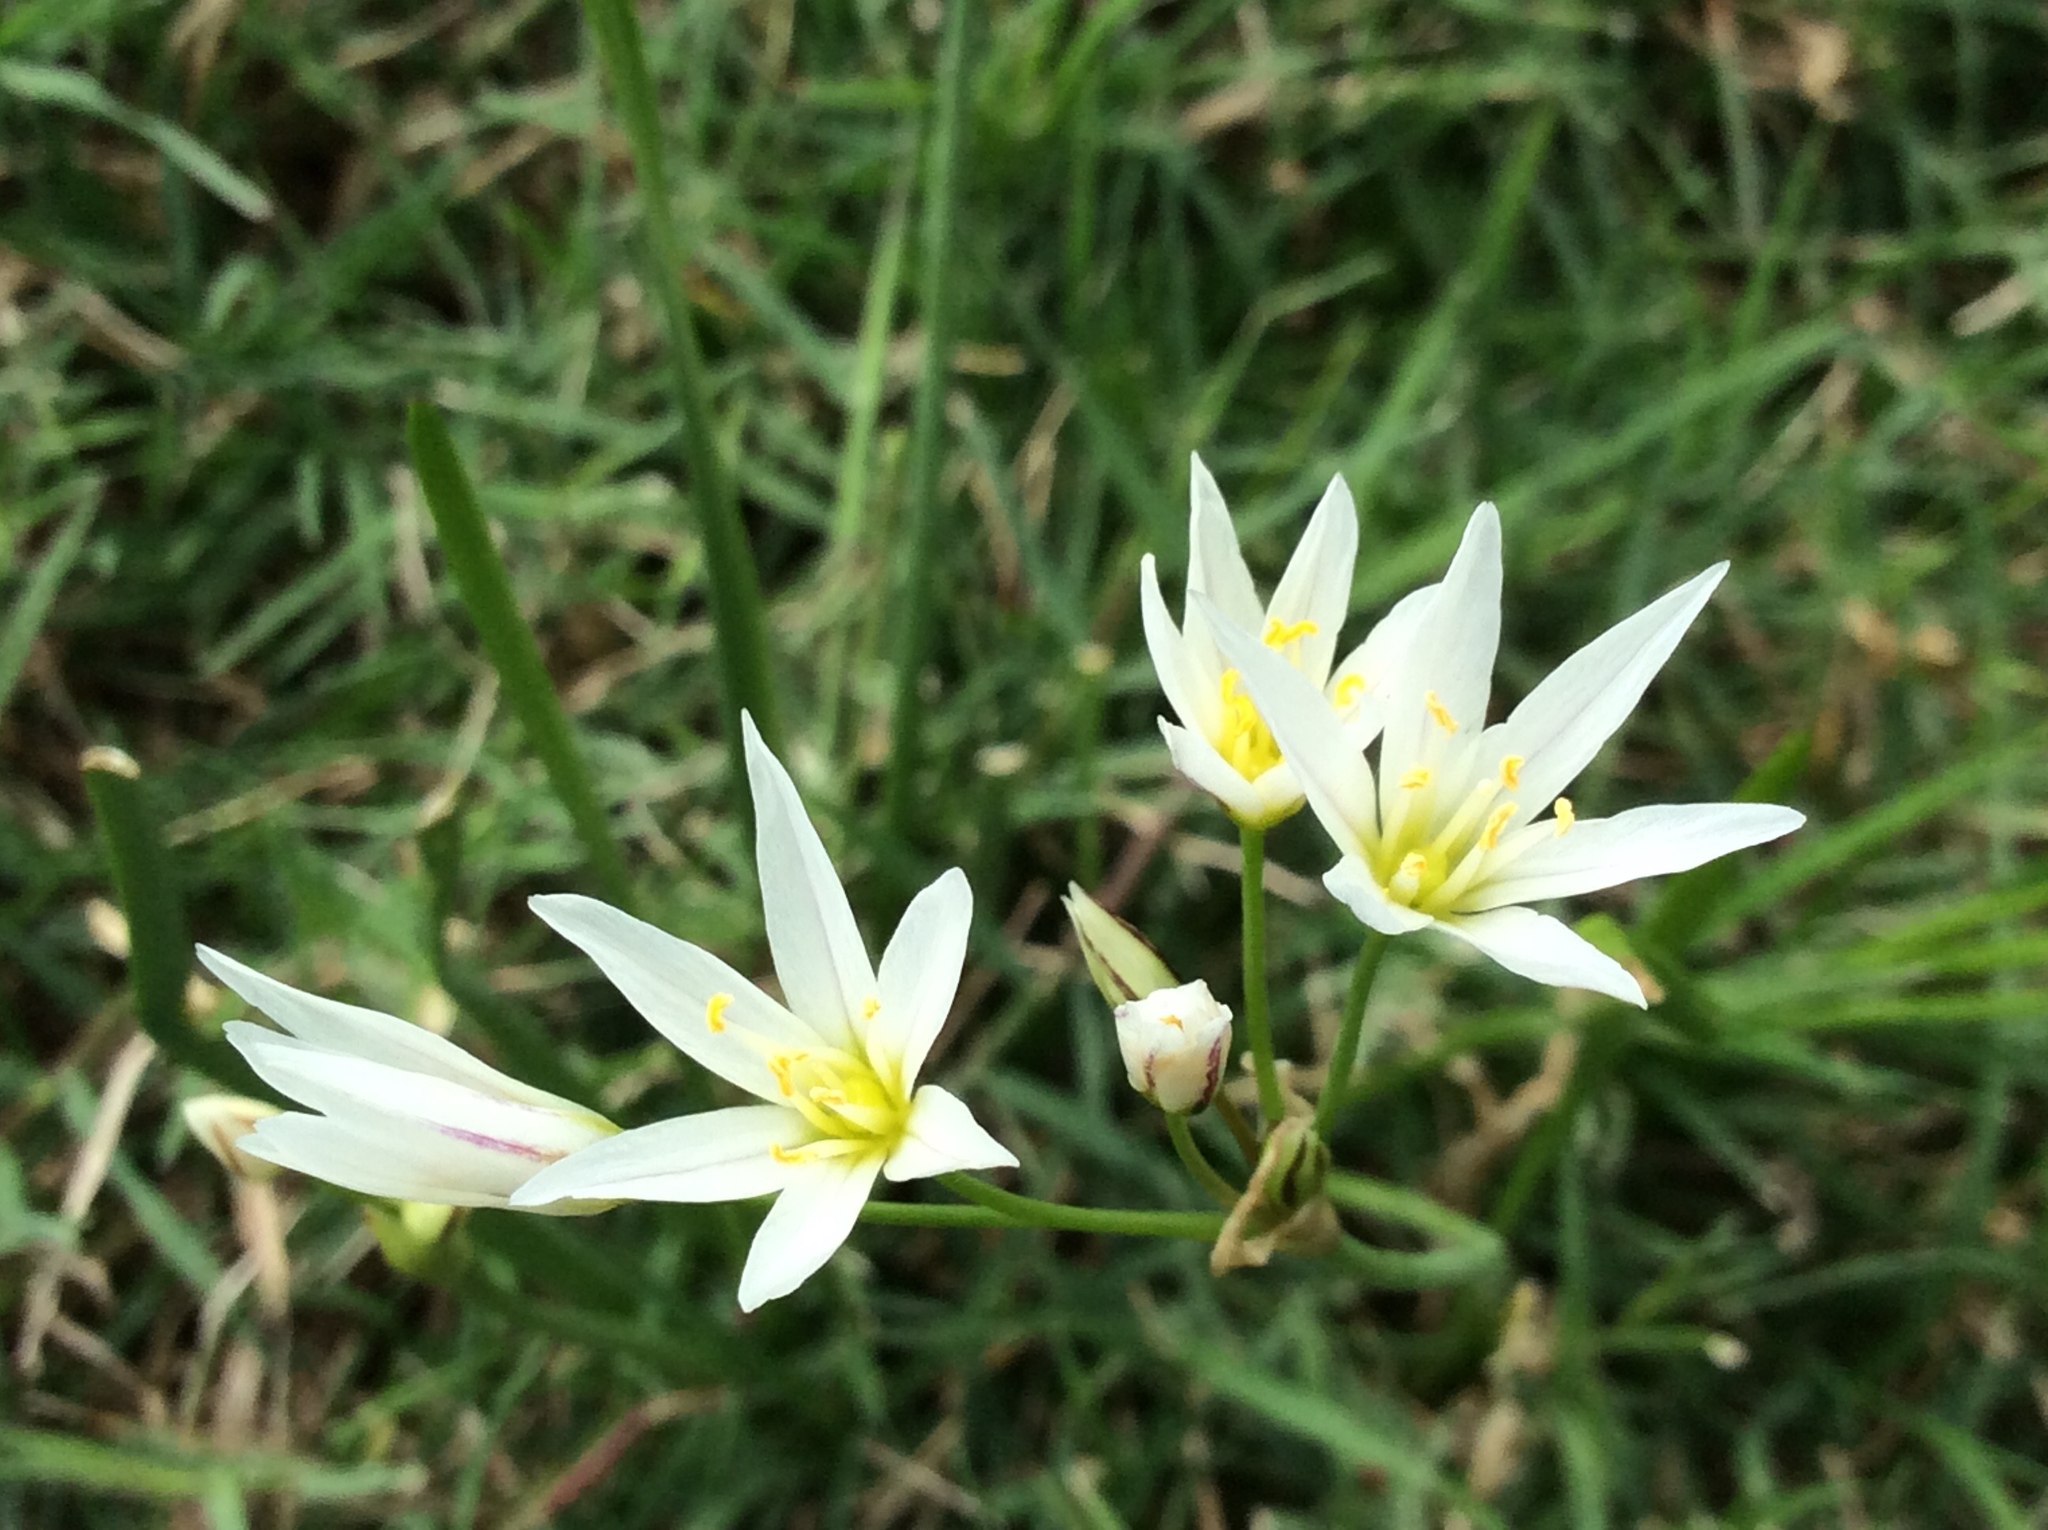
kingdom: Plantae
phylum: Tracheophyta
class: Liliopsida
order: Asparagales
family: Amaryllidaceae
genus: Nothoscordum
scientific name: Nothoscordum bivalve
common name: Crow-poison
